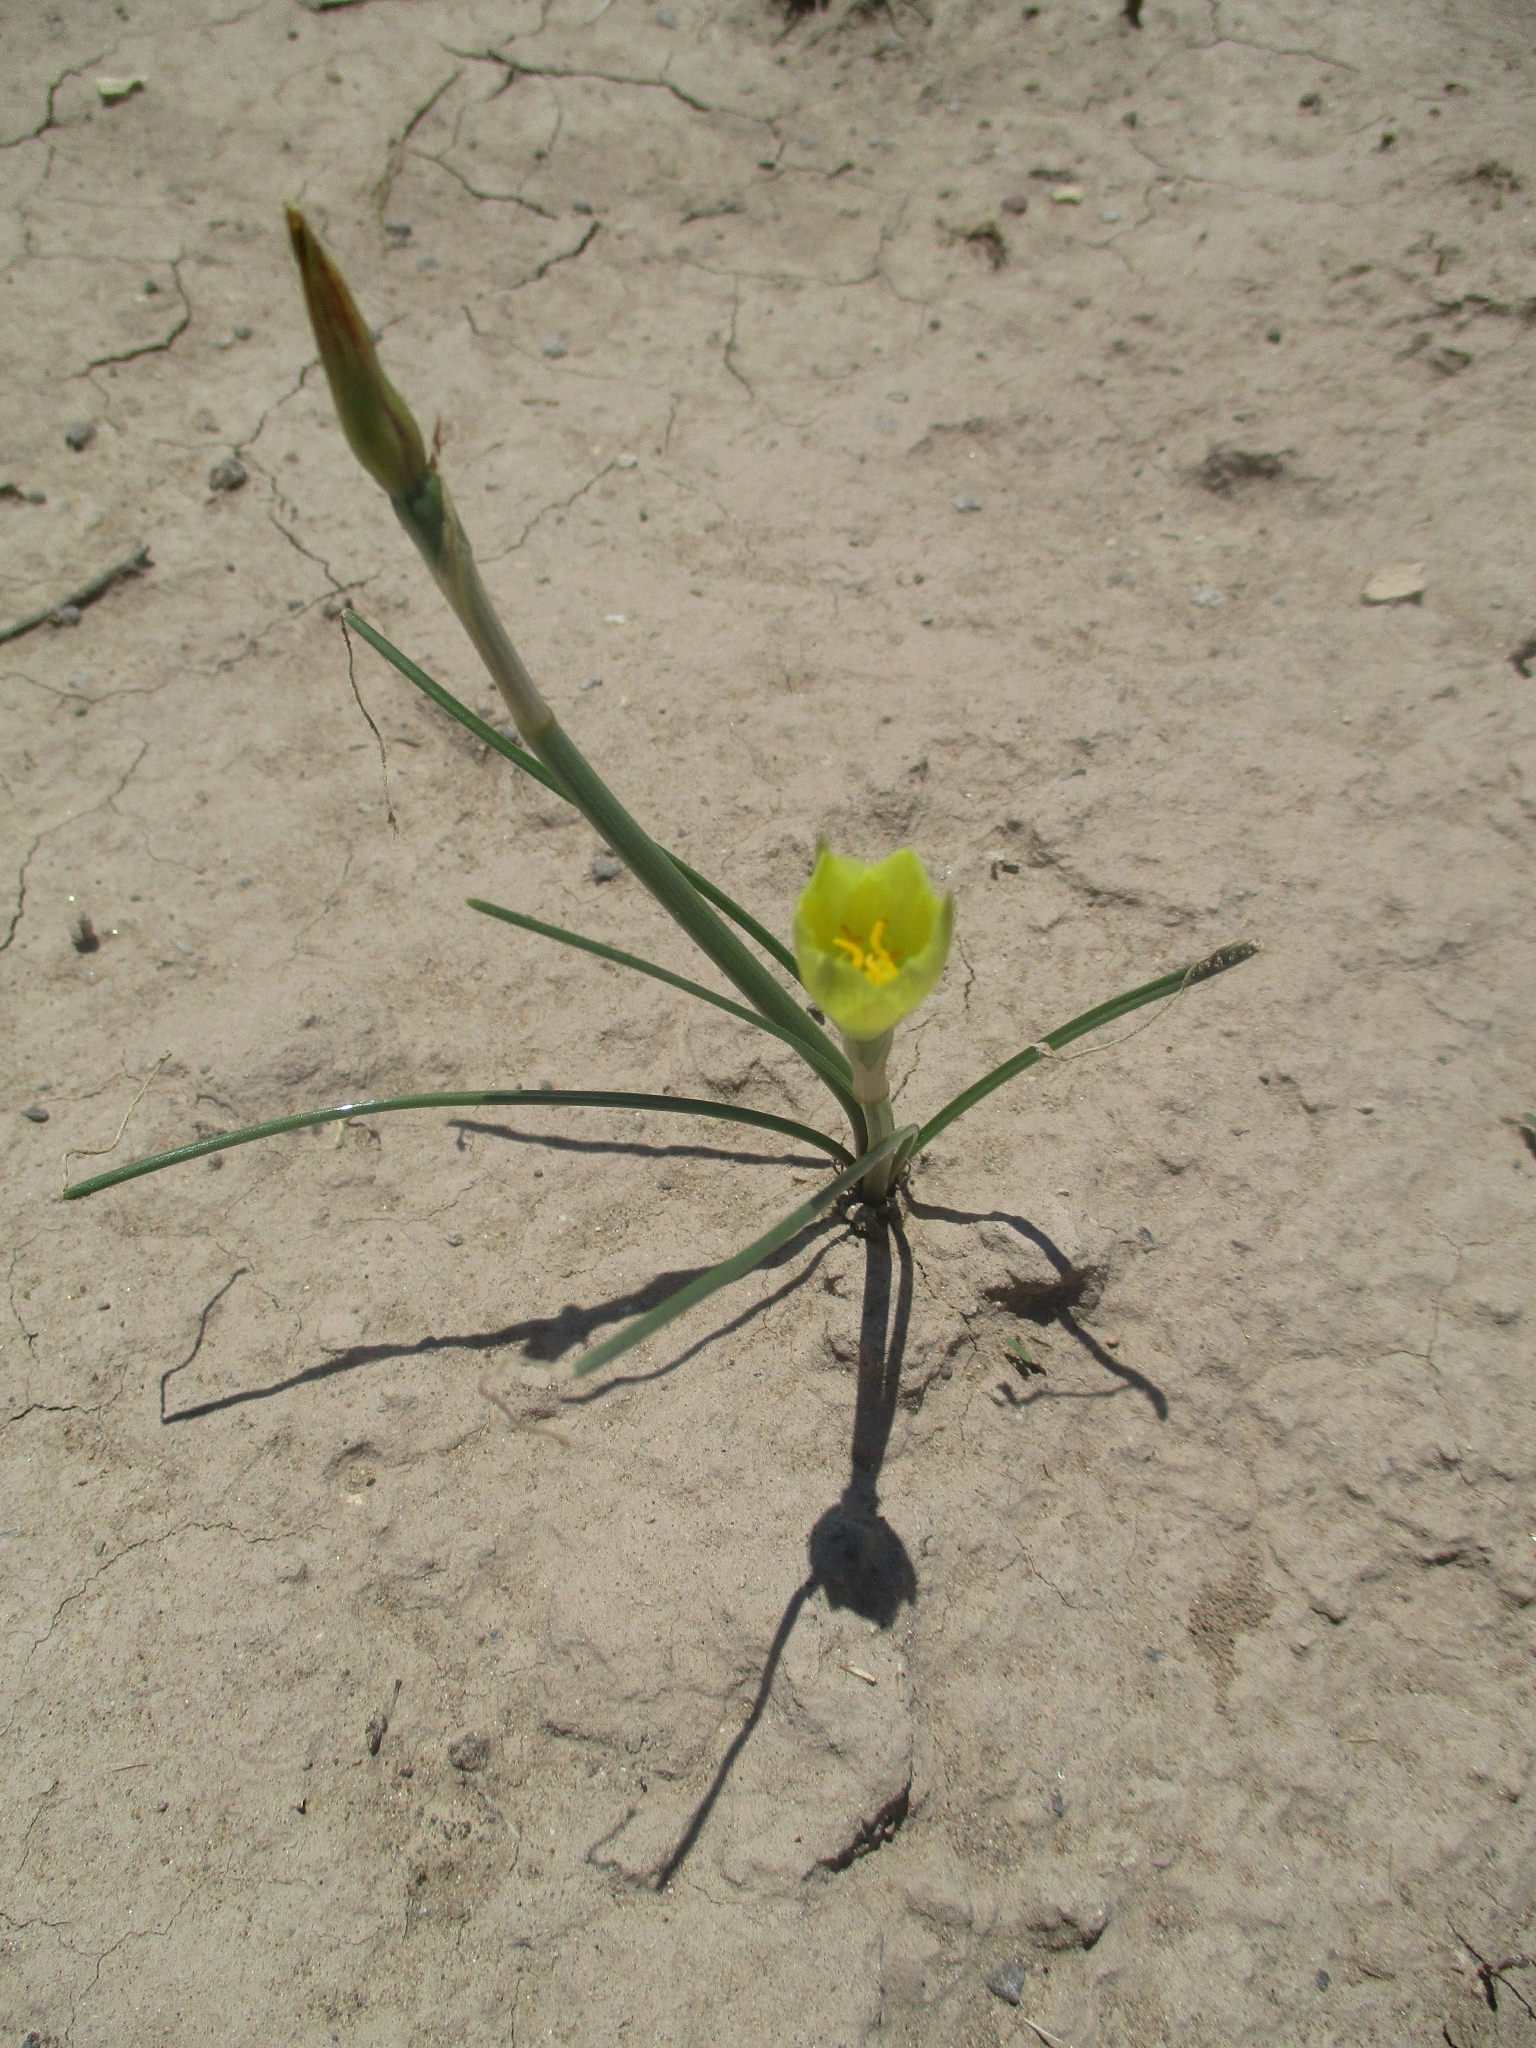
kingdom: Plantae
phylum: Tracheophyta
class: Liliopsida
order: Asparagales
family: Amaryllidaceae
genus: Zephyranthes
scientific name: Zephyranthes longifolia
